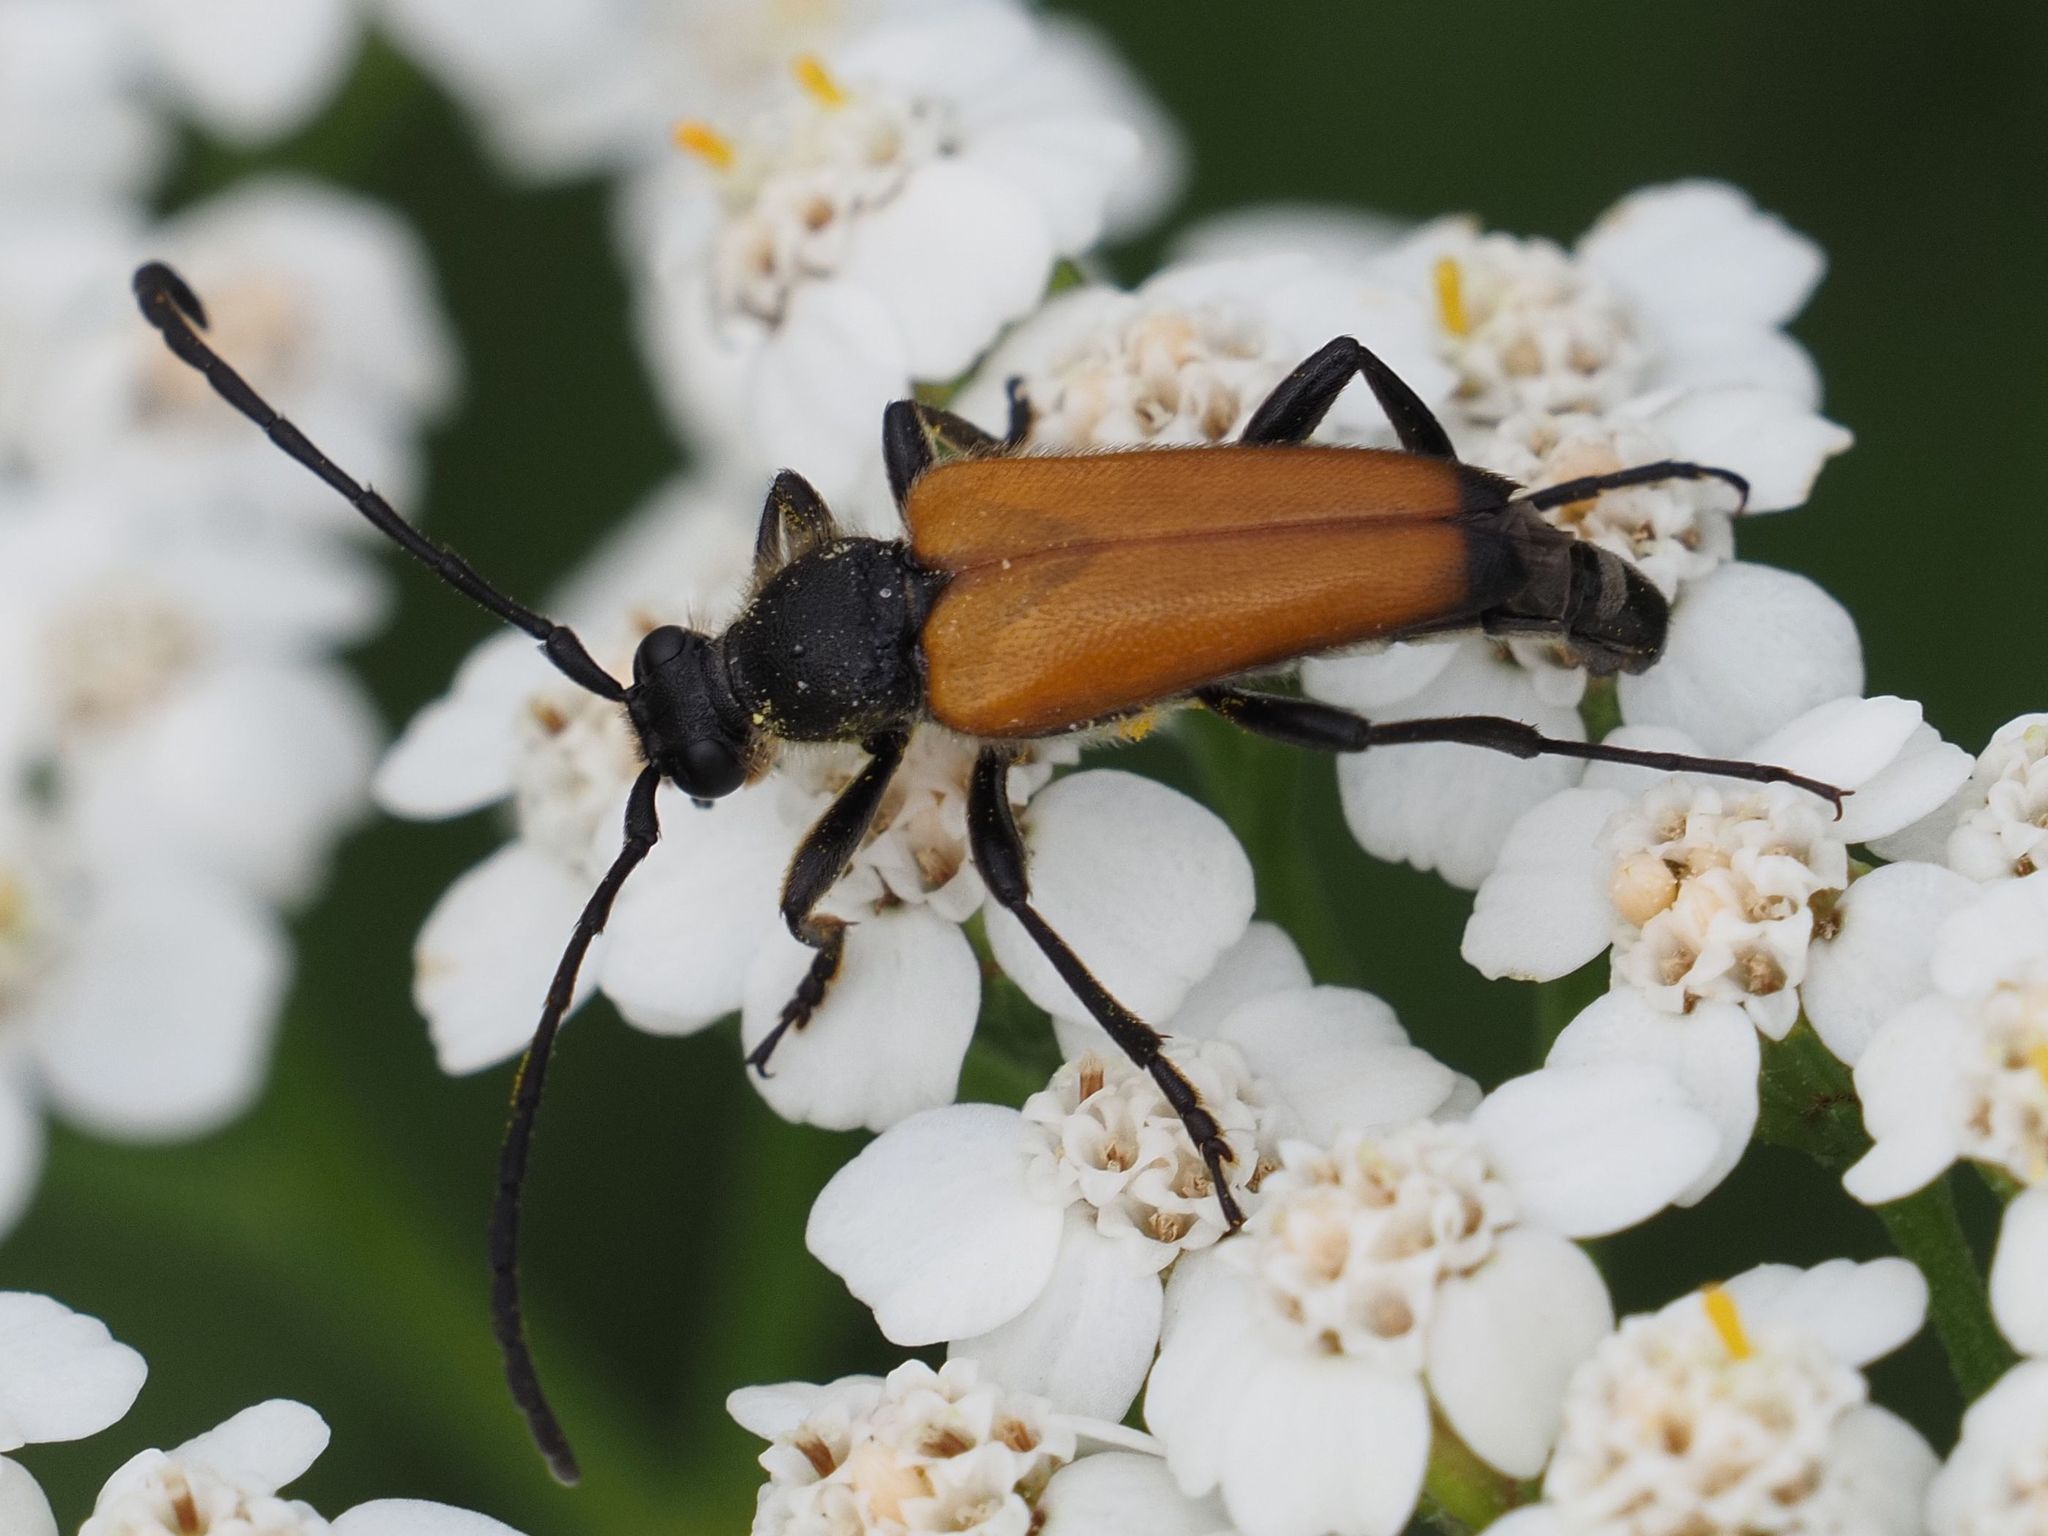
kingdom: Animalia
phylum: Arthropoda
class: Insecta
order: Coleoptera
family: Cerambycidae
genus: Paracorymbia
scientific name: Paracorymbia fulva
